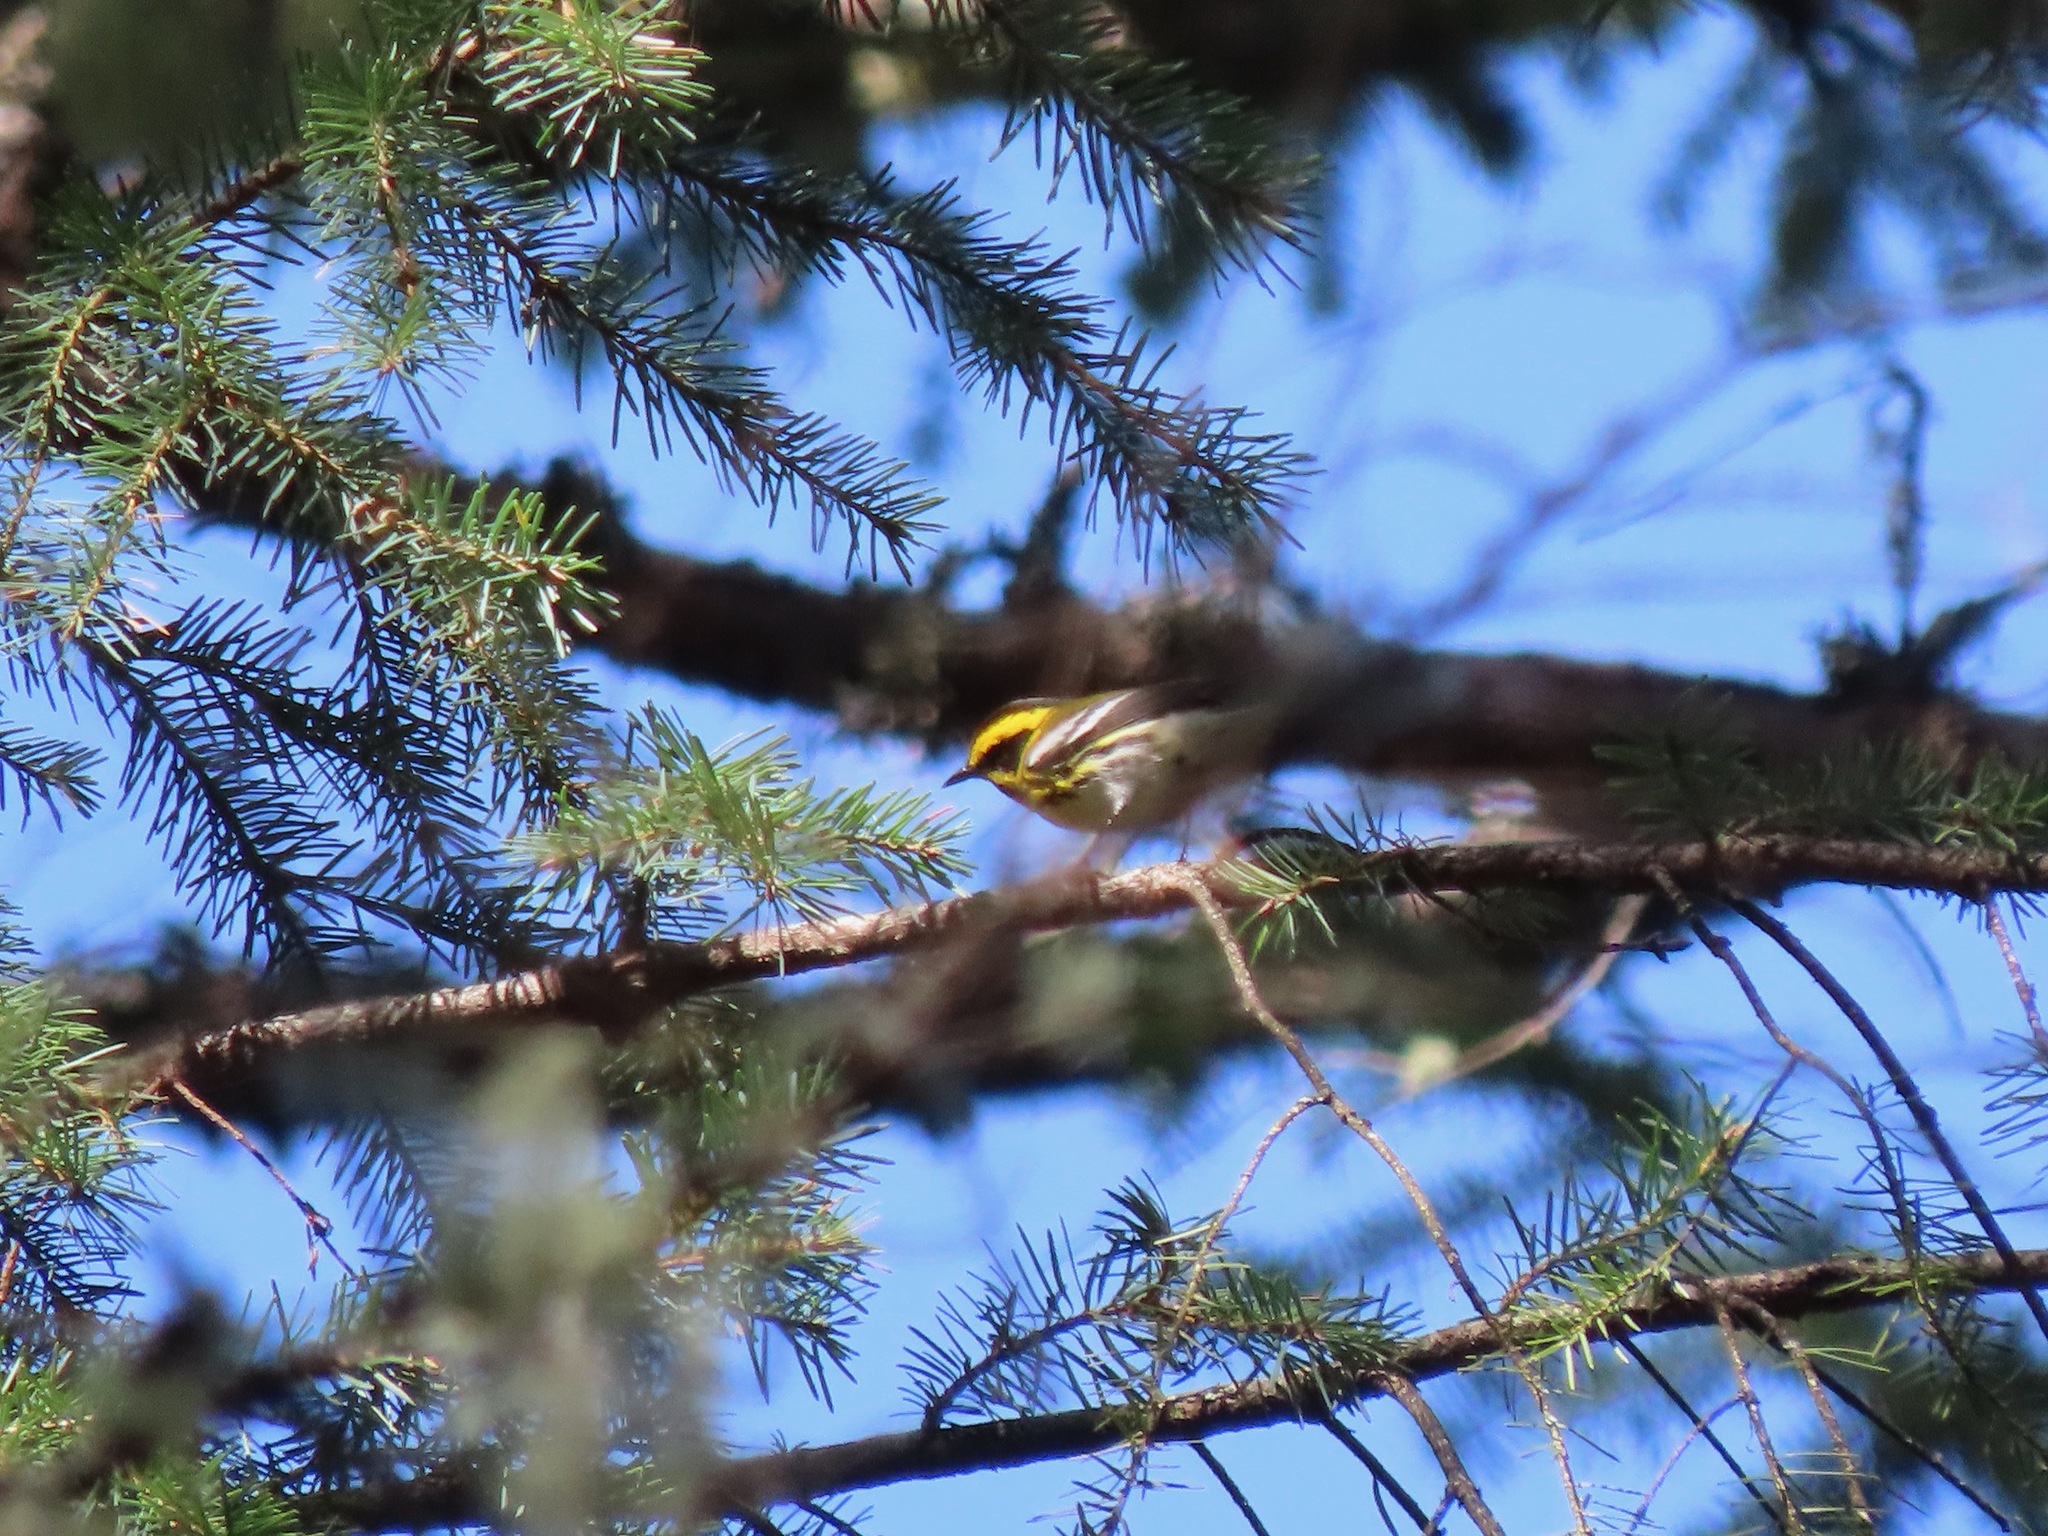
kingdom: Animalia
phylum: Chordata
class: Aves
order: Passeriformes
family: Parulidae
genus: Setophaga
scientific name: Setophaga townsendi
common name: Townsend's warbler
